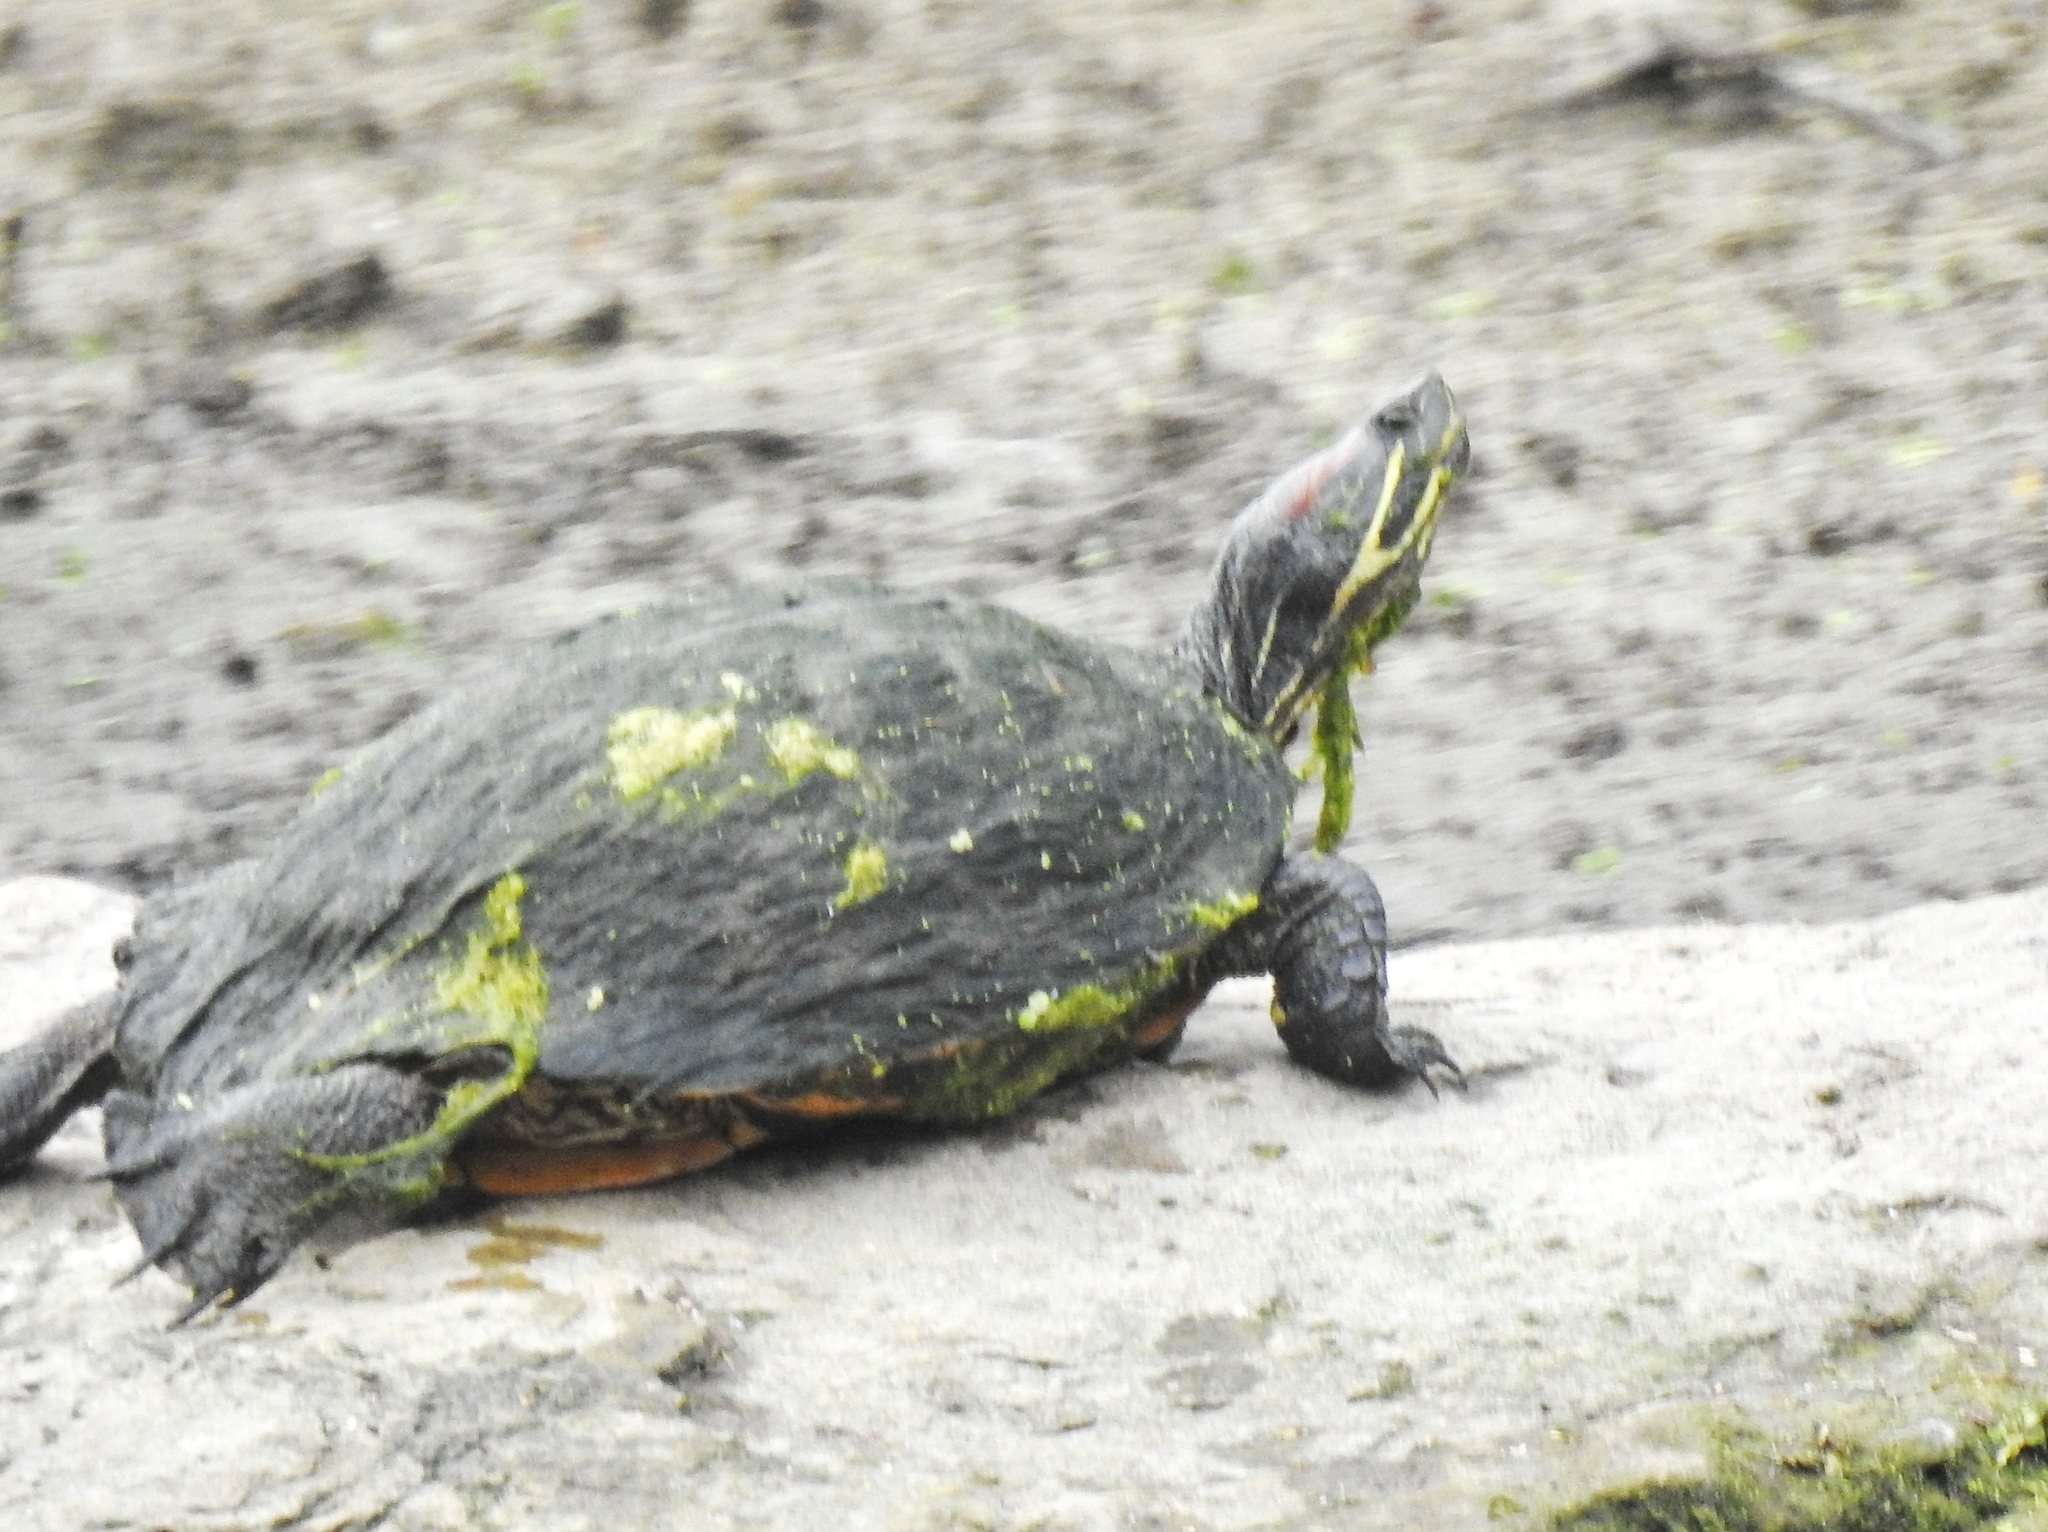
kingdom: Animalia
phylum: Chordata
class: Testudines
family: Emydidae
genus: Trachemys
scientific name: Trachemys scripta
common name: Slider
